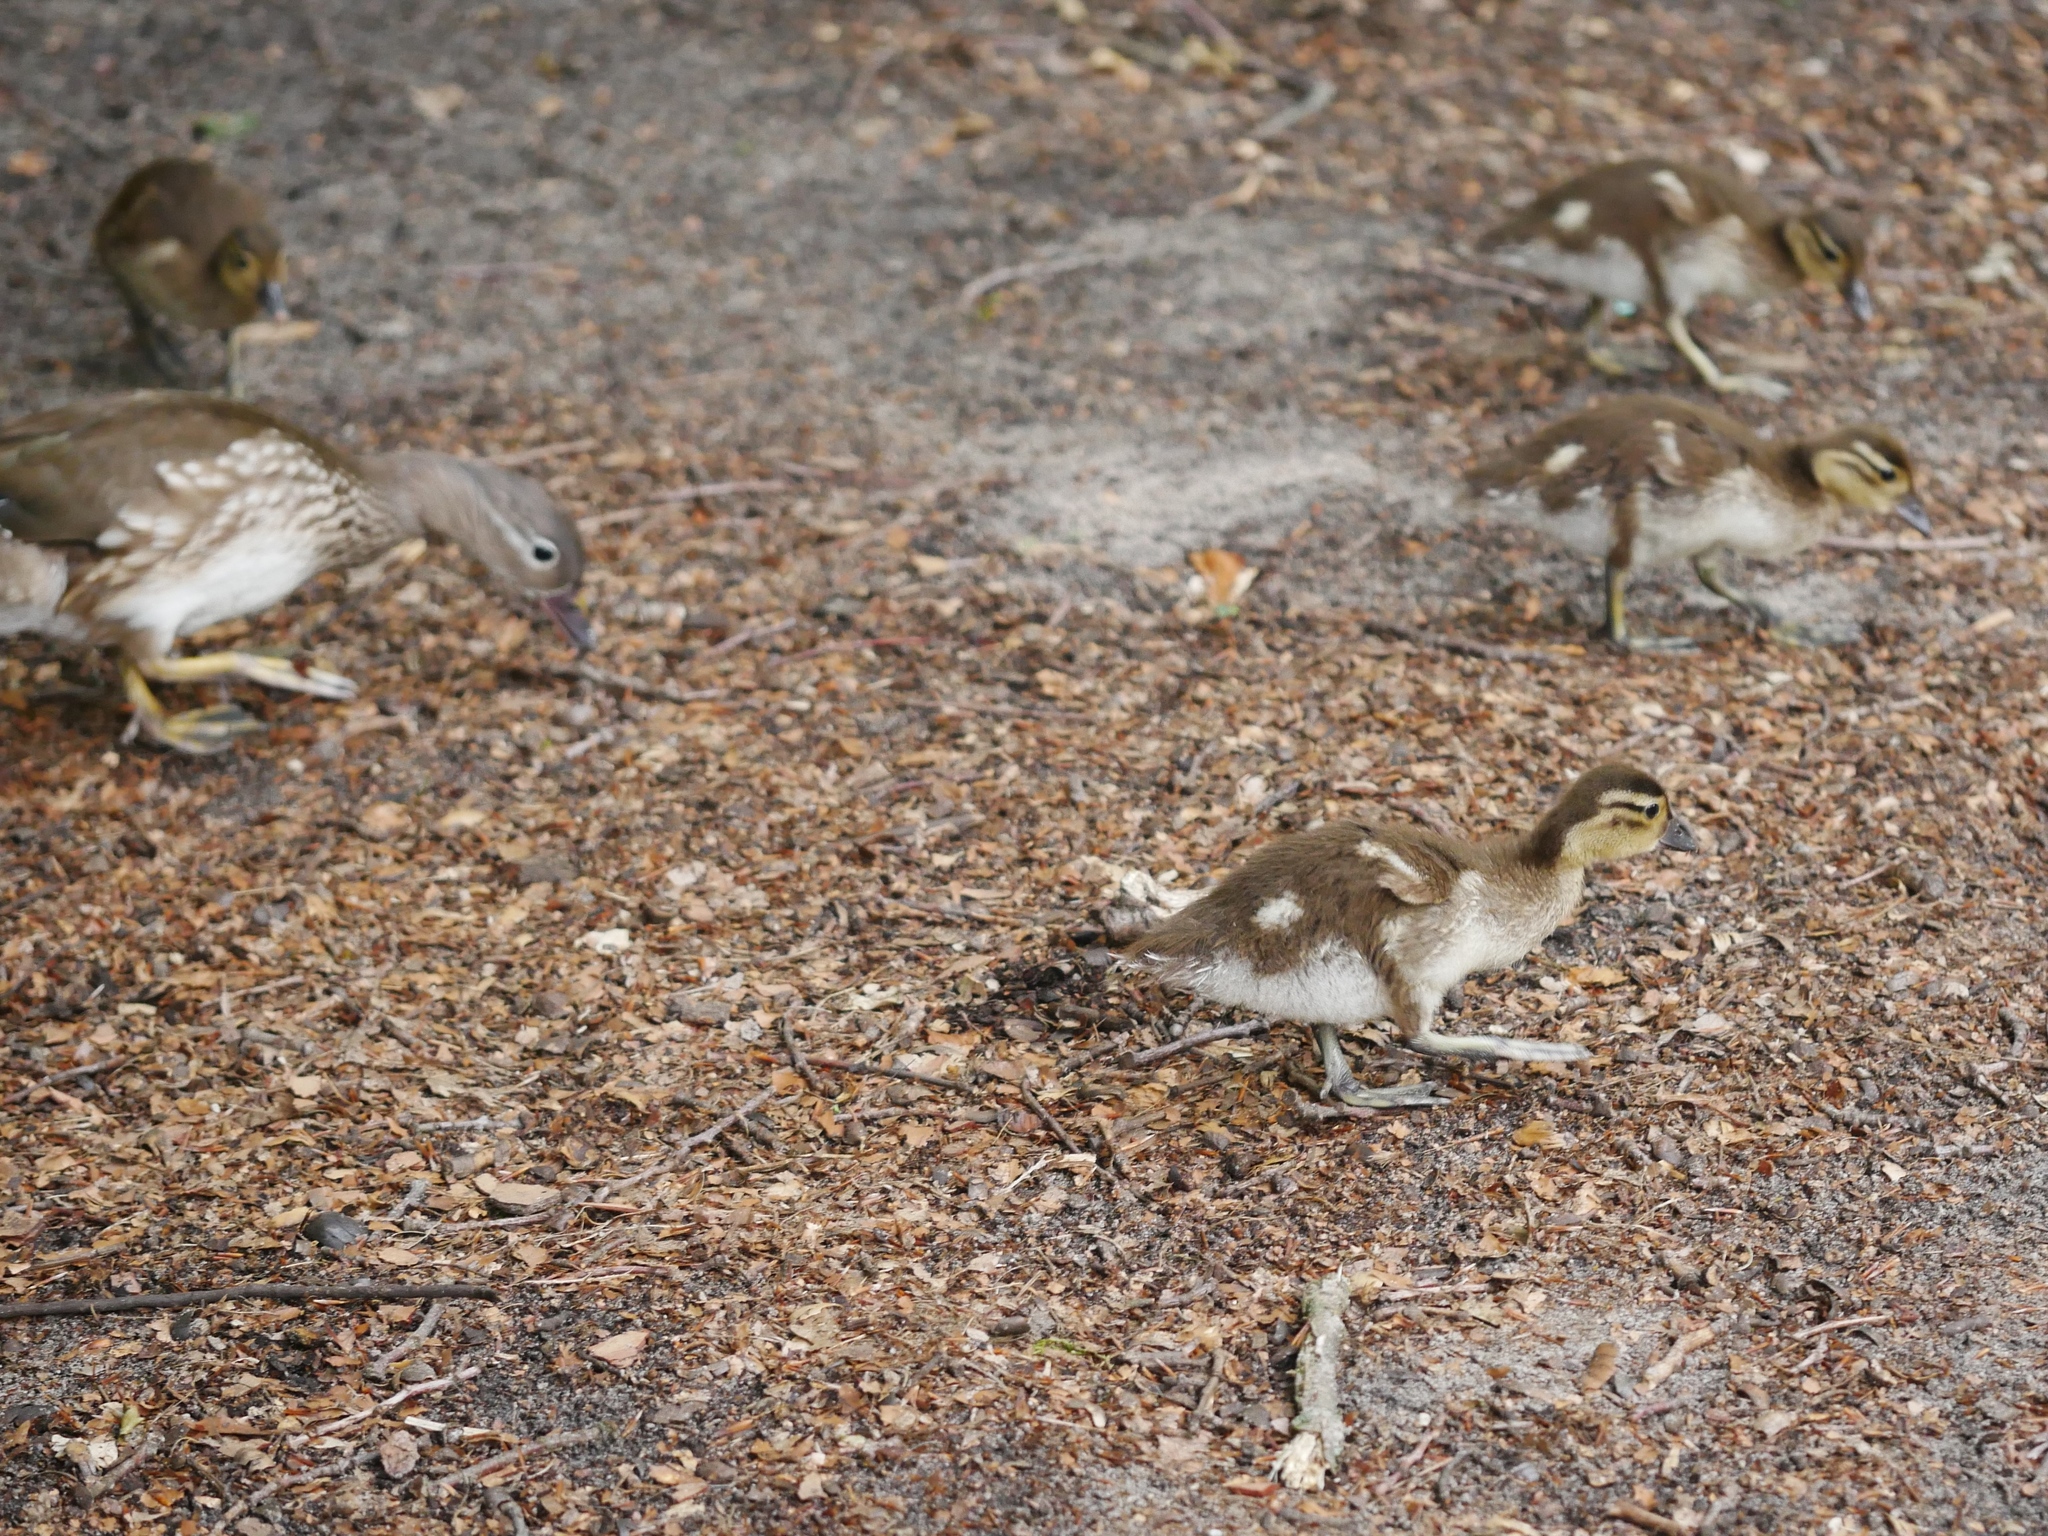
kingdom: Animalia
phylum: Chordata
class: Aves
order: Anseriformes
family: Anatidae
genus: Aix
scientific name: Aix galericulata
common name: Mandarin duck
